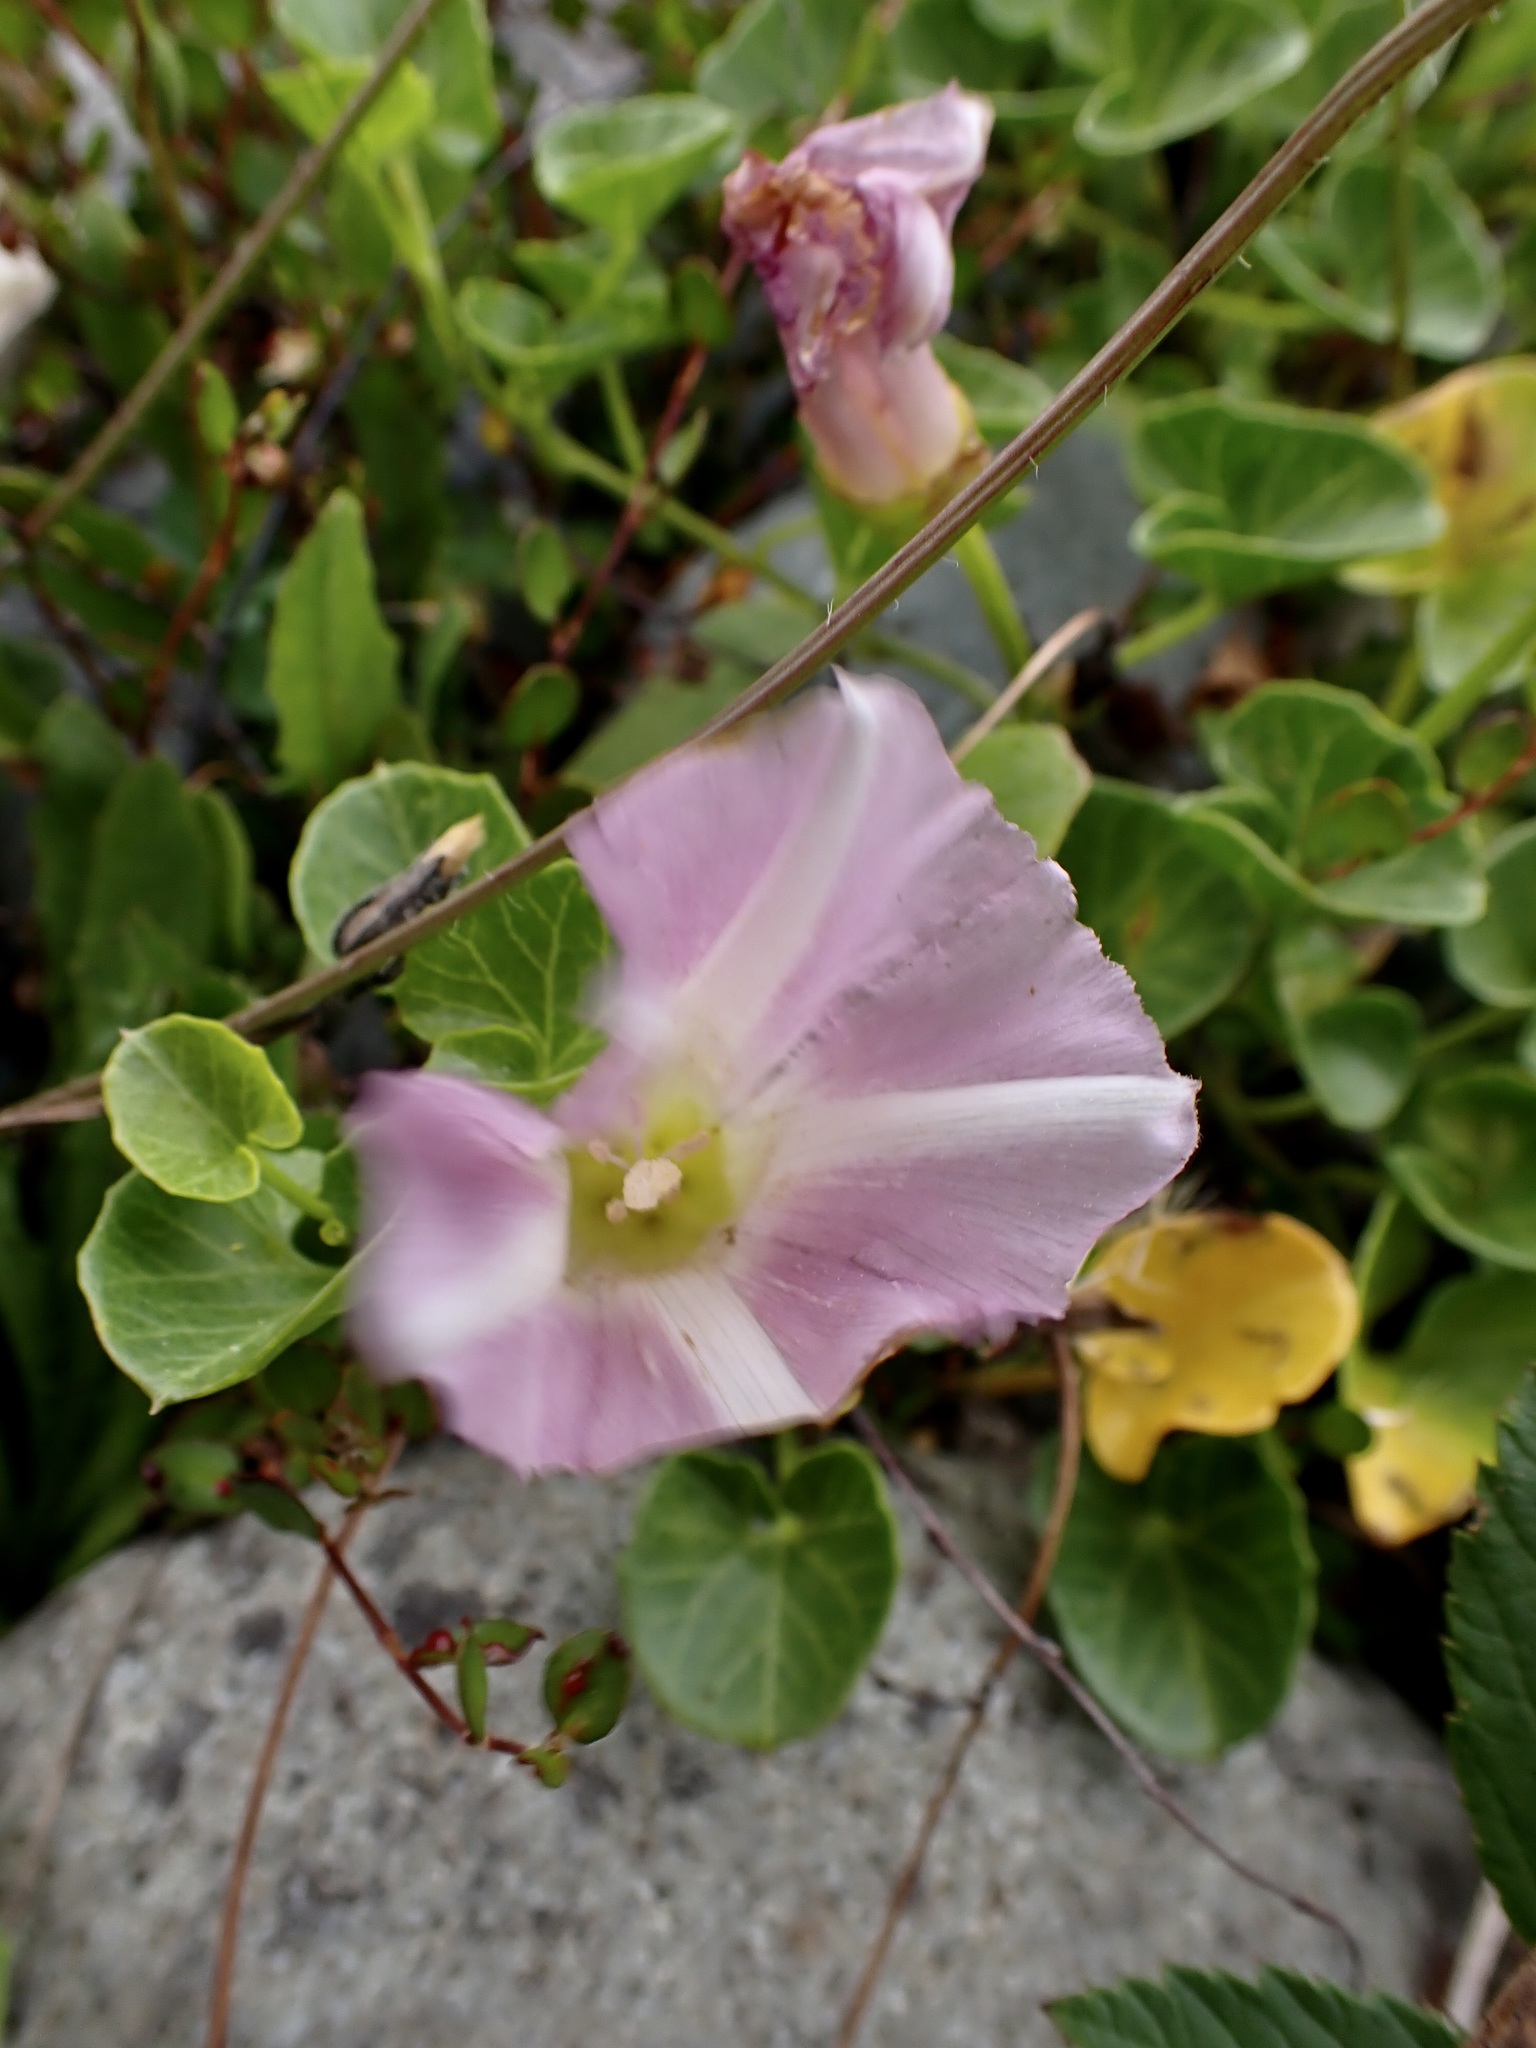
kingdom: Plantae
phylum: Tracheophyta
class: Magnoliopsida
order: Solanales
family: Convolvulaceae
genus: Calystegia
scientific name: Calystegia soldanella
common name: Sea bindweed
